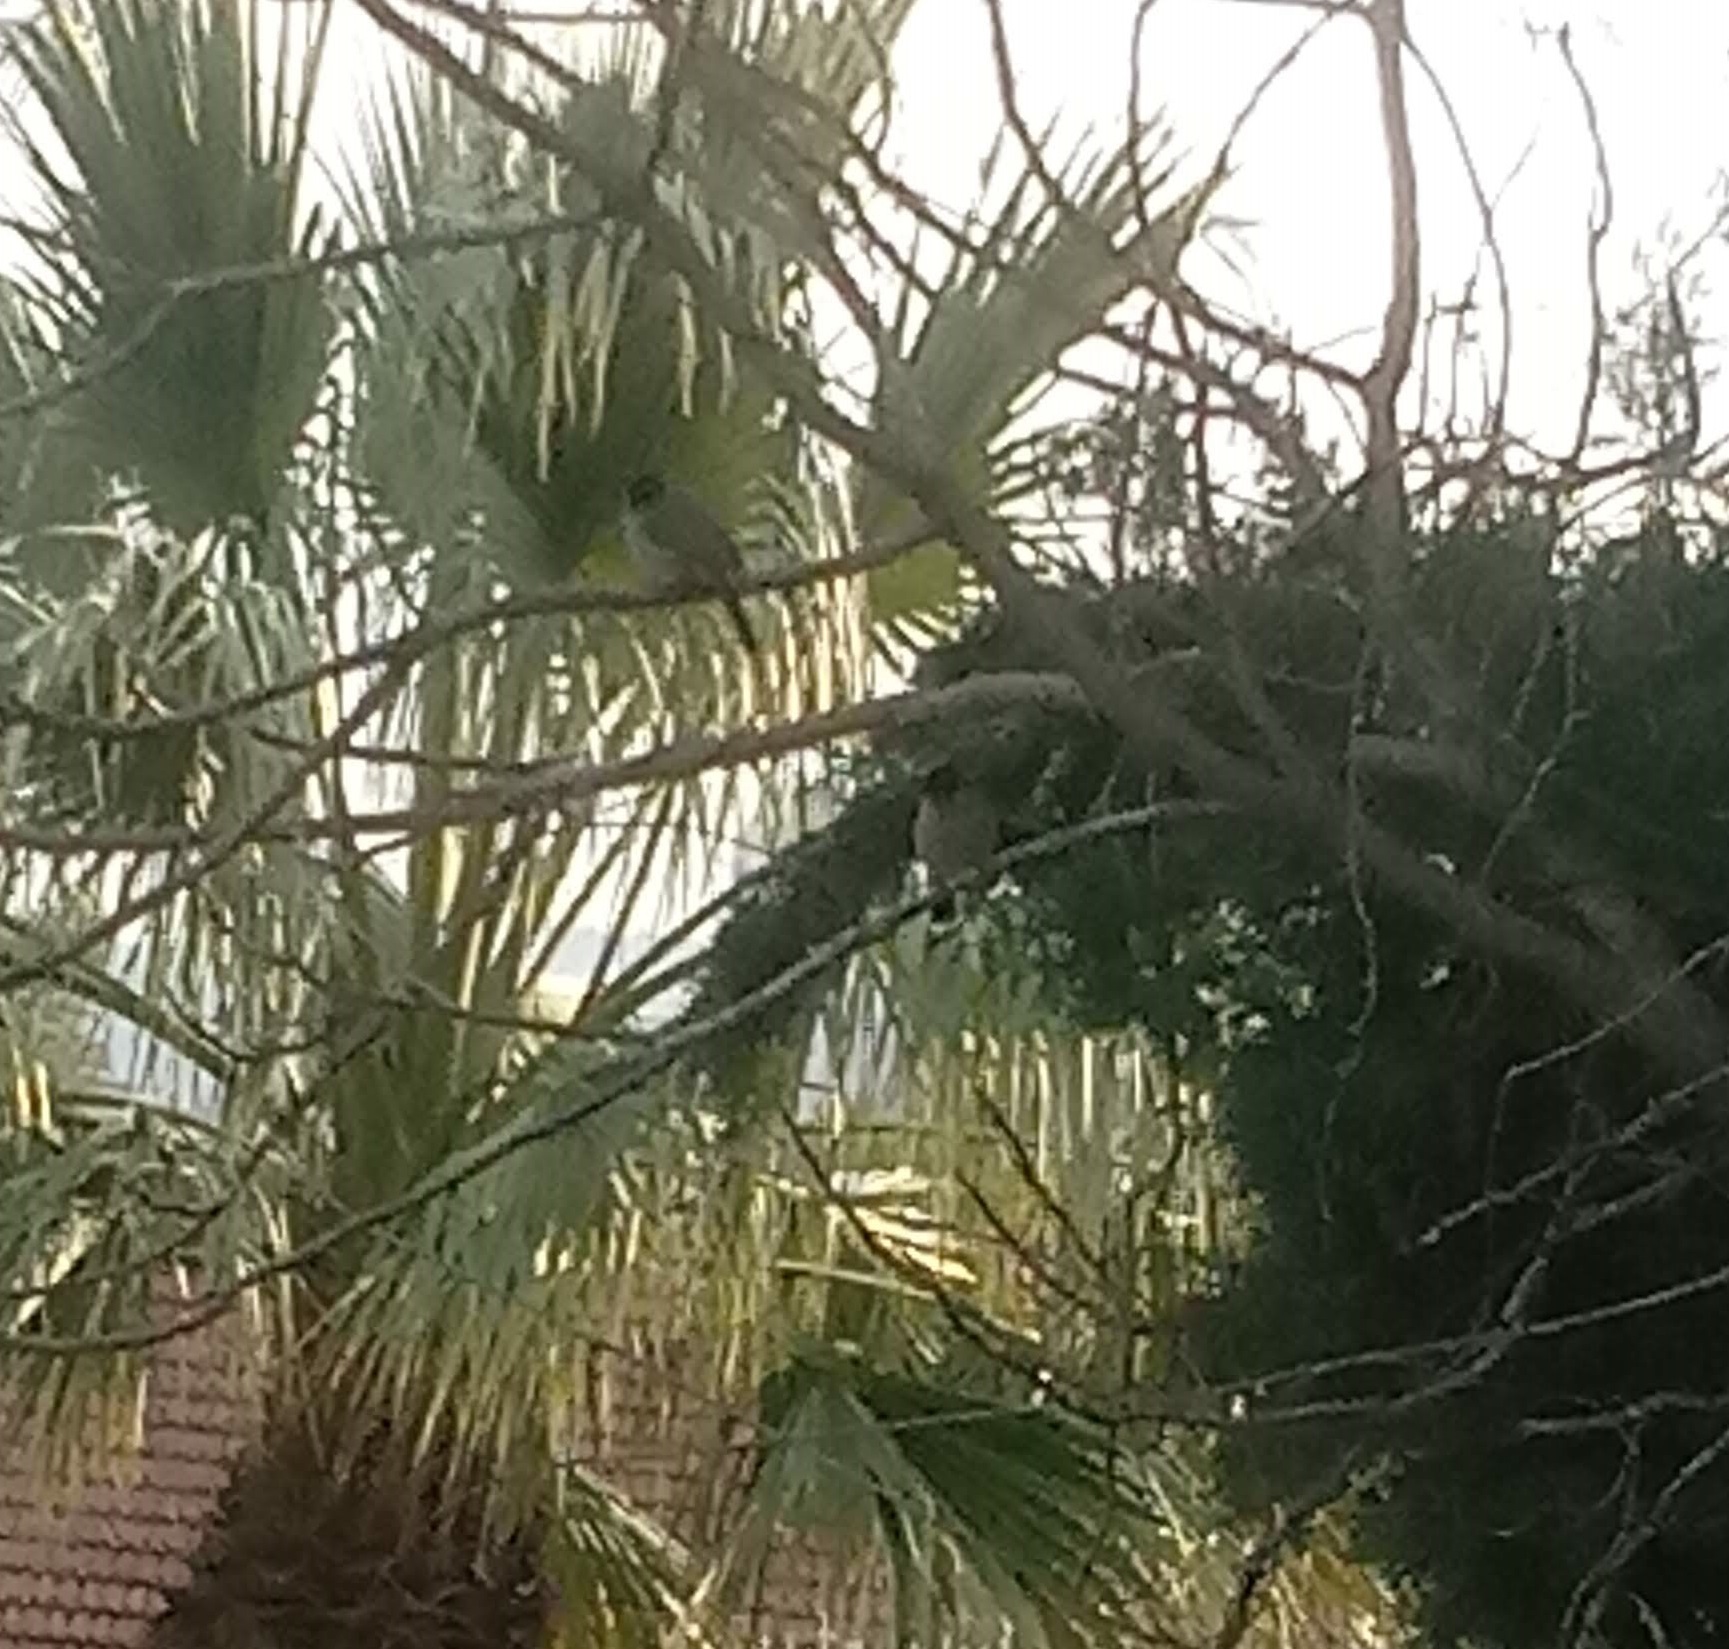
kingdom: Animalia
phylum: Chordata
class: Aves
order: Passeriformes
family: Pycnonotidae
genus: Pycnonotus
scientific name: Pycnonotus xanthopygos
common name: White-spectacled bulbul
